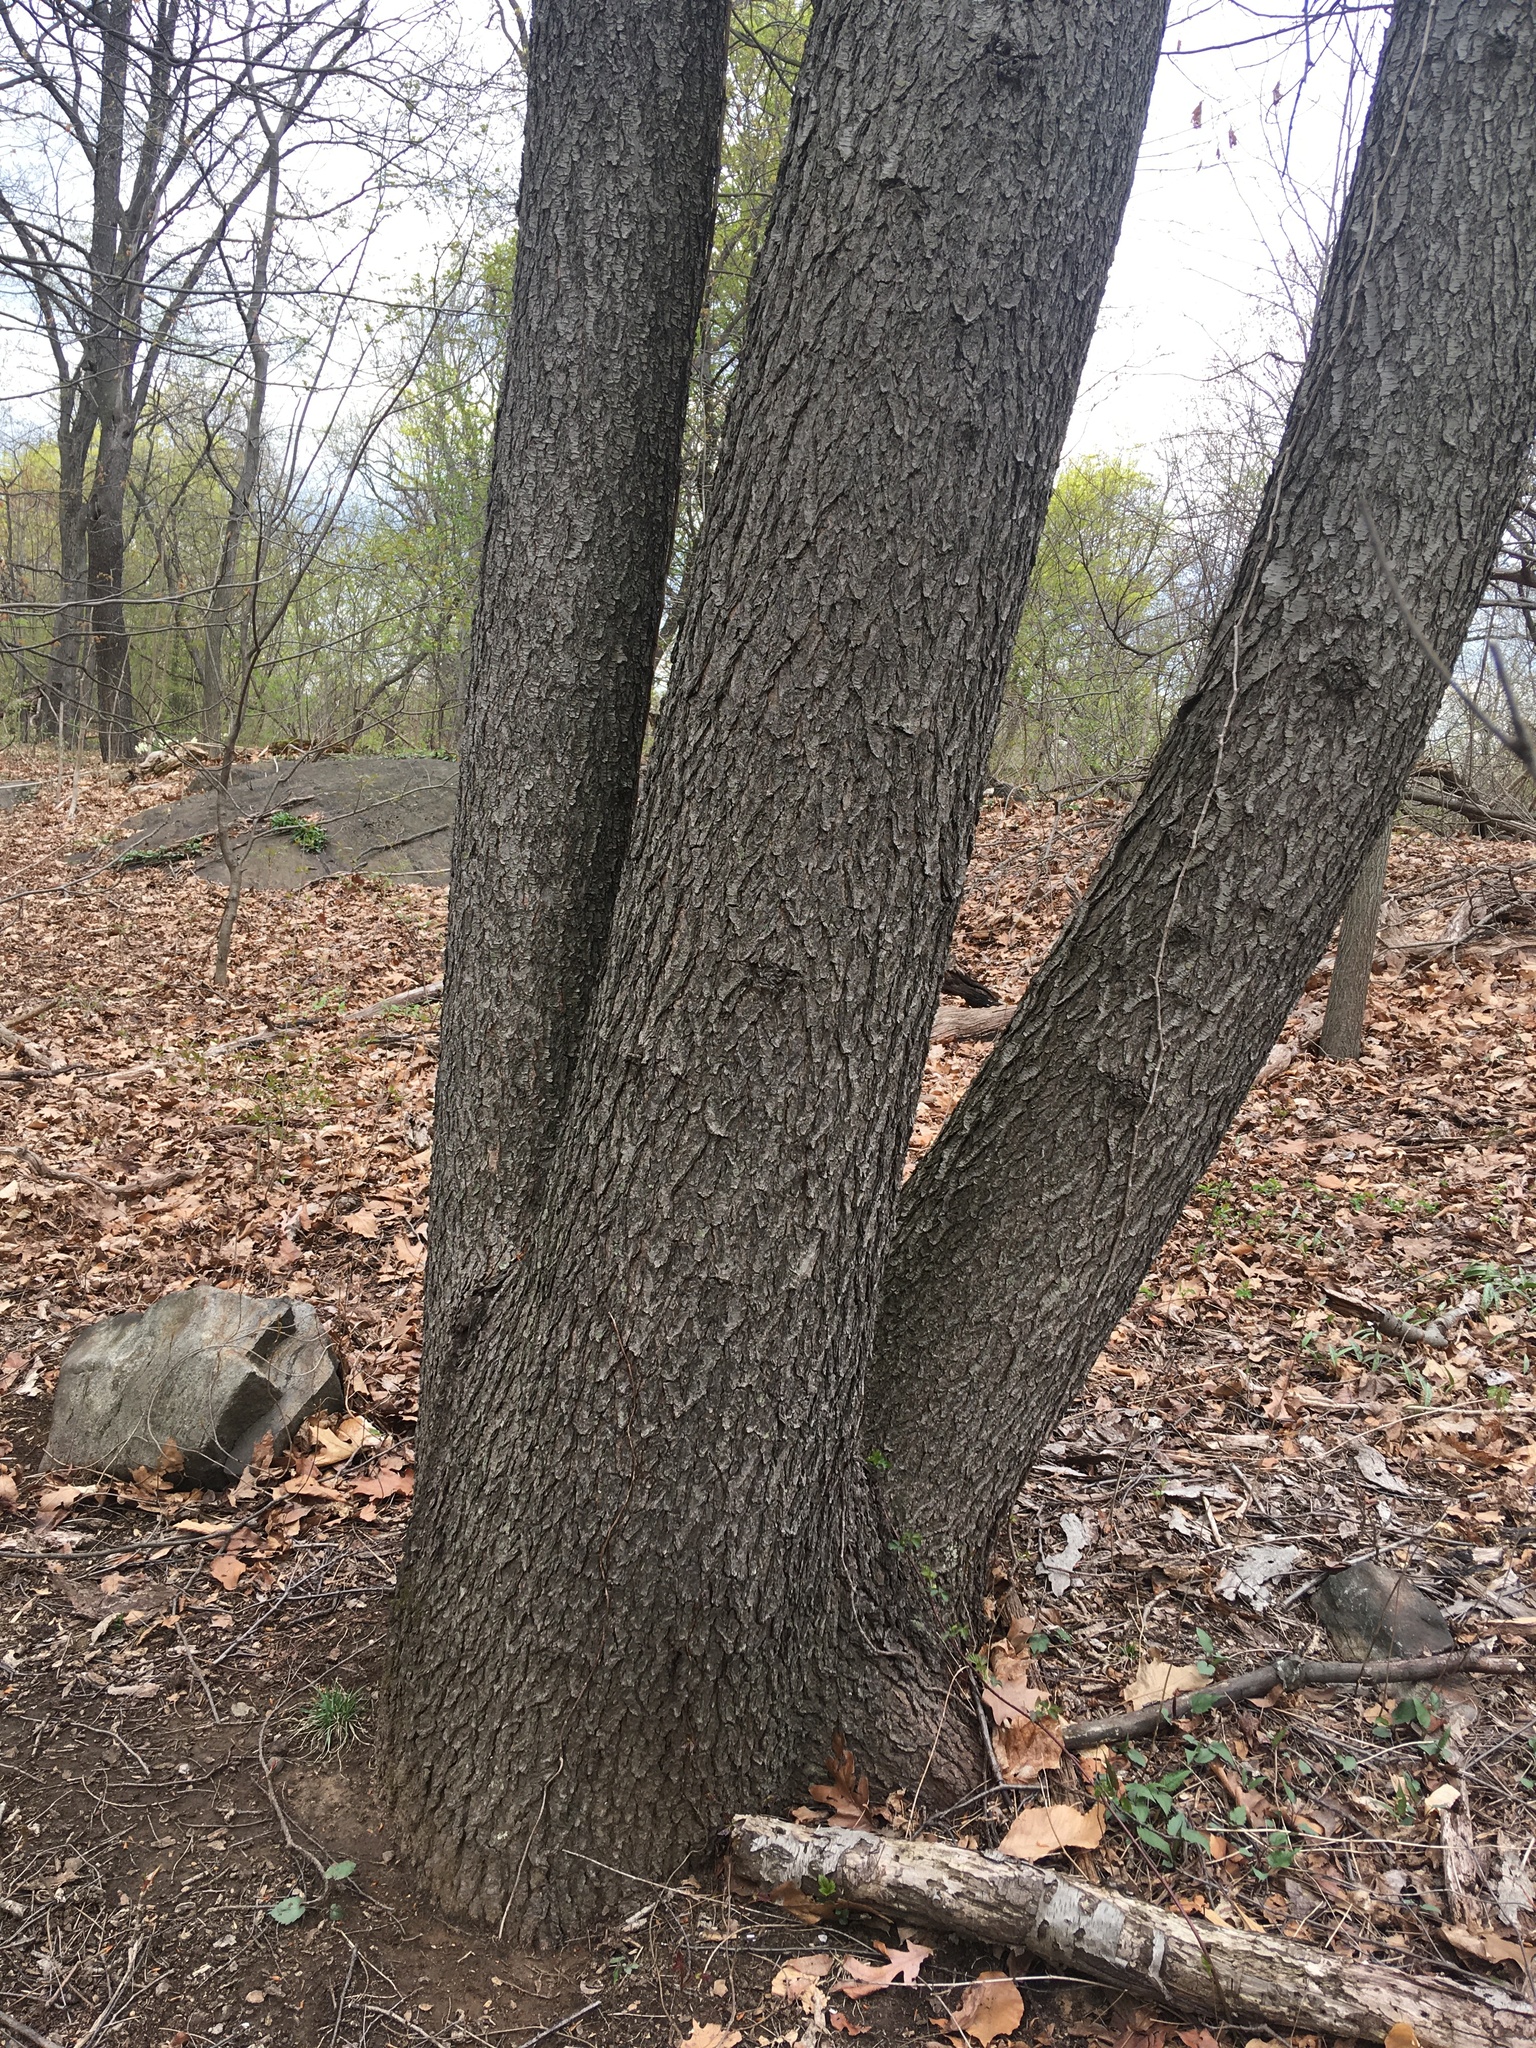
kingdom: Plantae
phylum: Tracheophyta
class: Magnoliopsida
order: Rosales
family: Rosaceae
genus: Prunus
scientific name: Prunus serotina
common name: Black cherry
